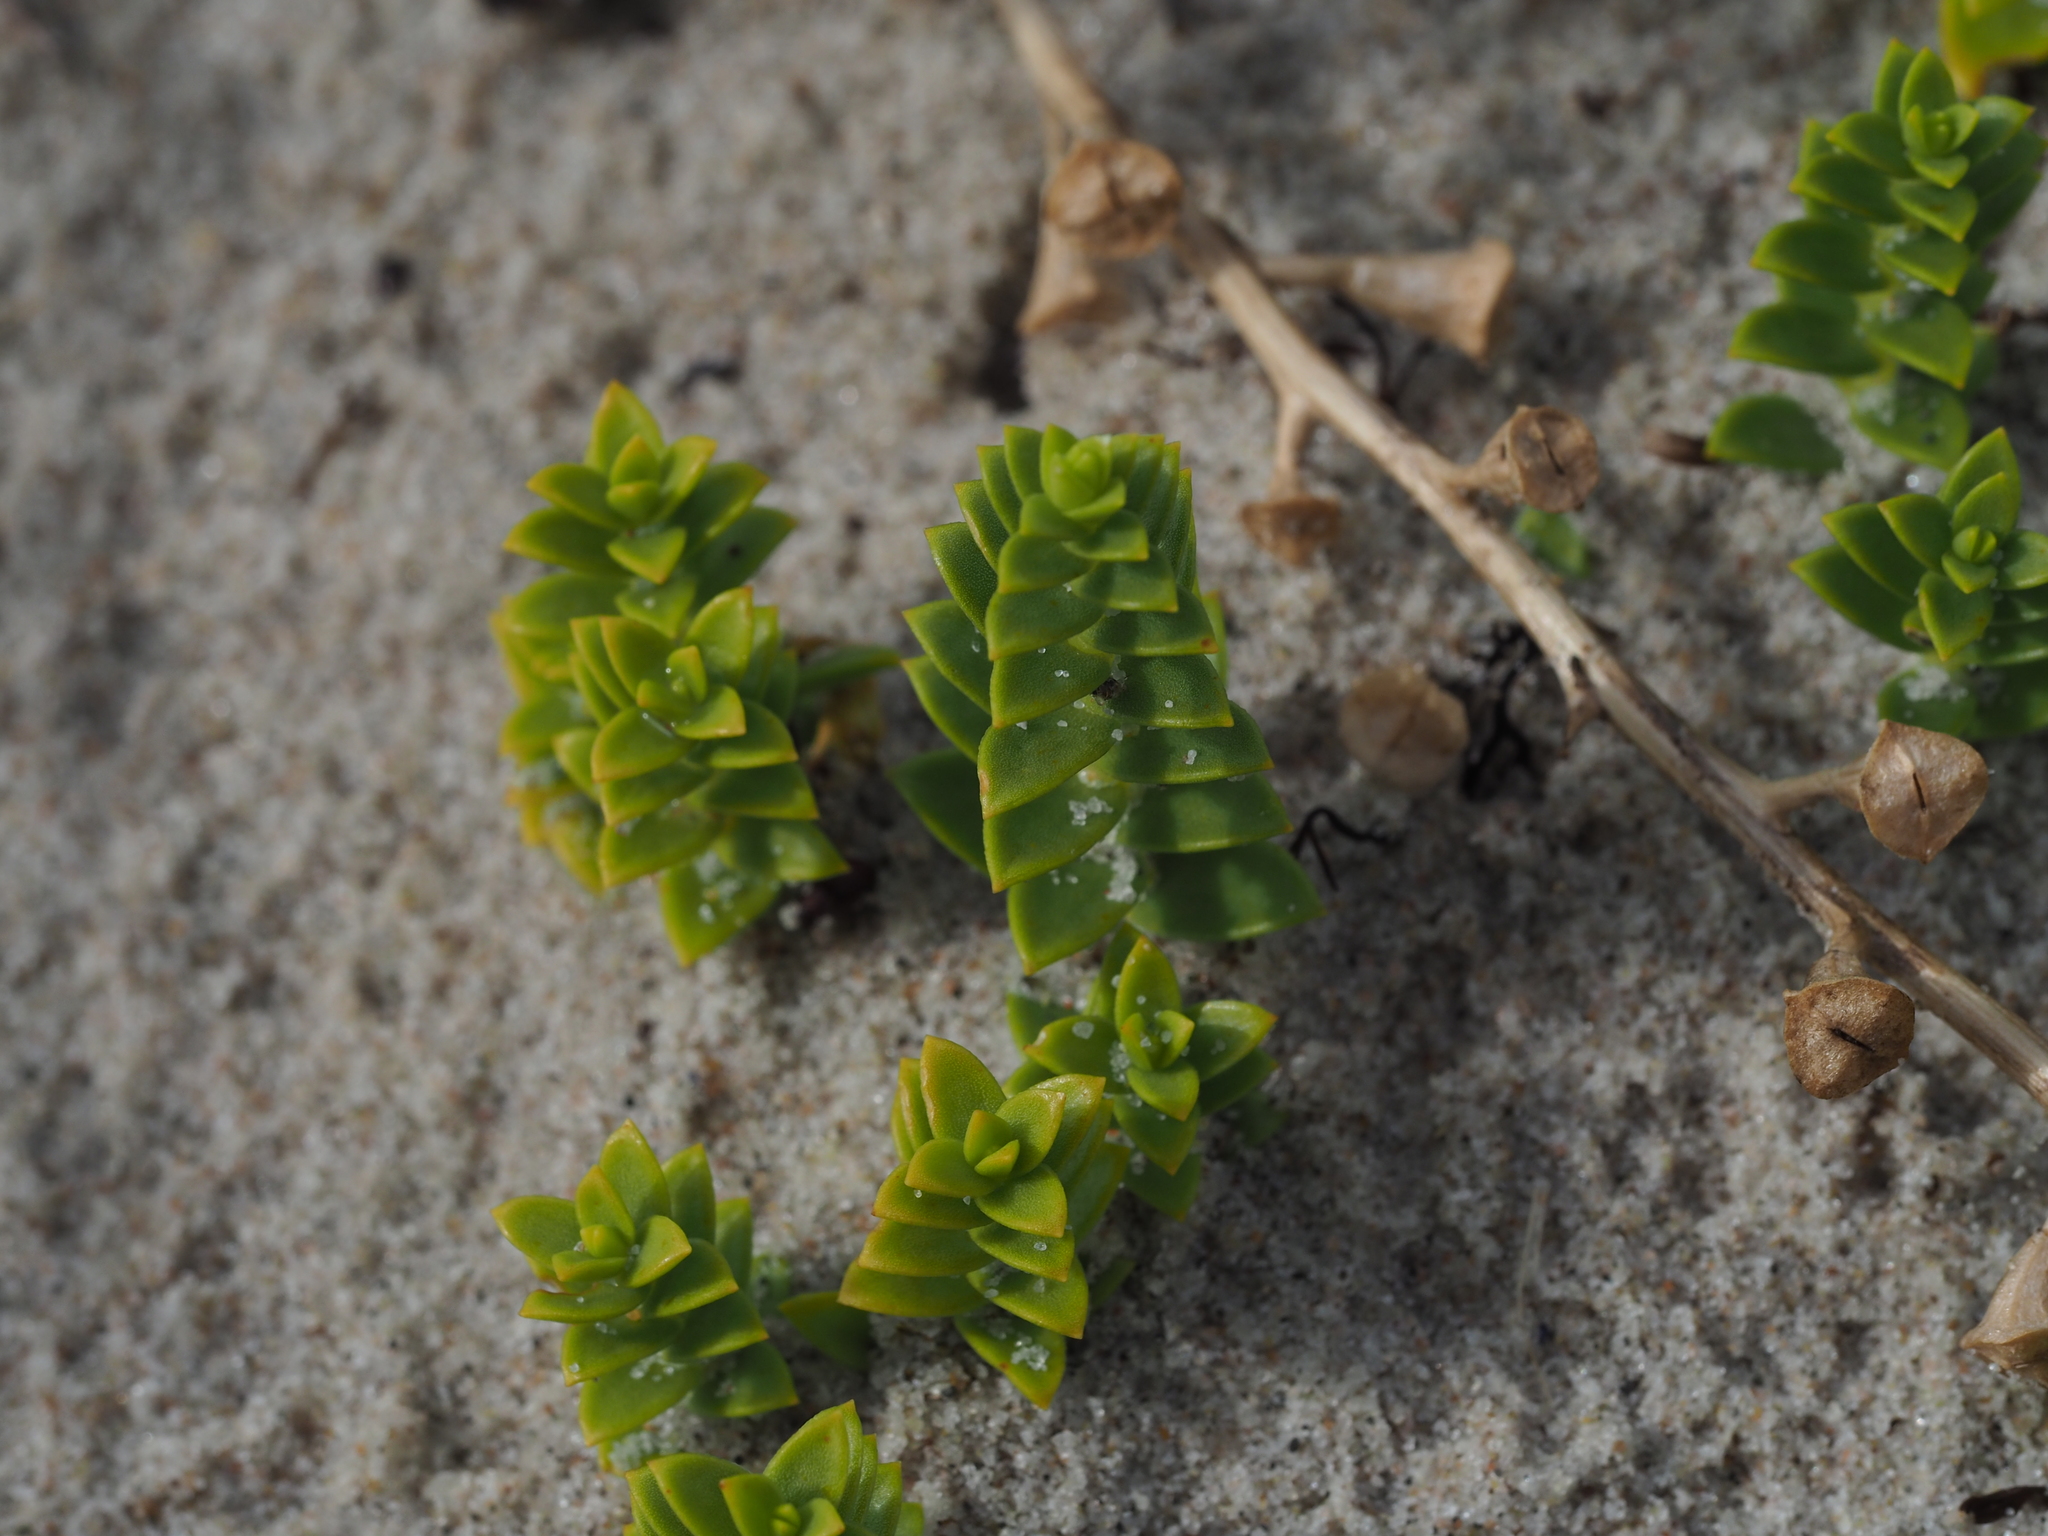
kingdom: Plantae
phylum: Tracheophyta
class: Magnoliopsida
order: Caryophyllales
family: Caryophyllaceae
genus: Honckenya
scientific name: Honckenya peploides
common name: Sea sandwort
